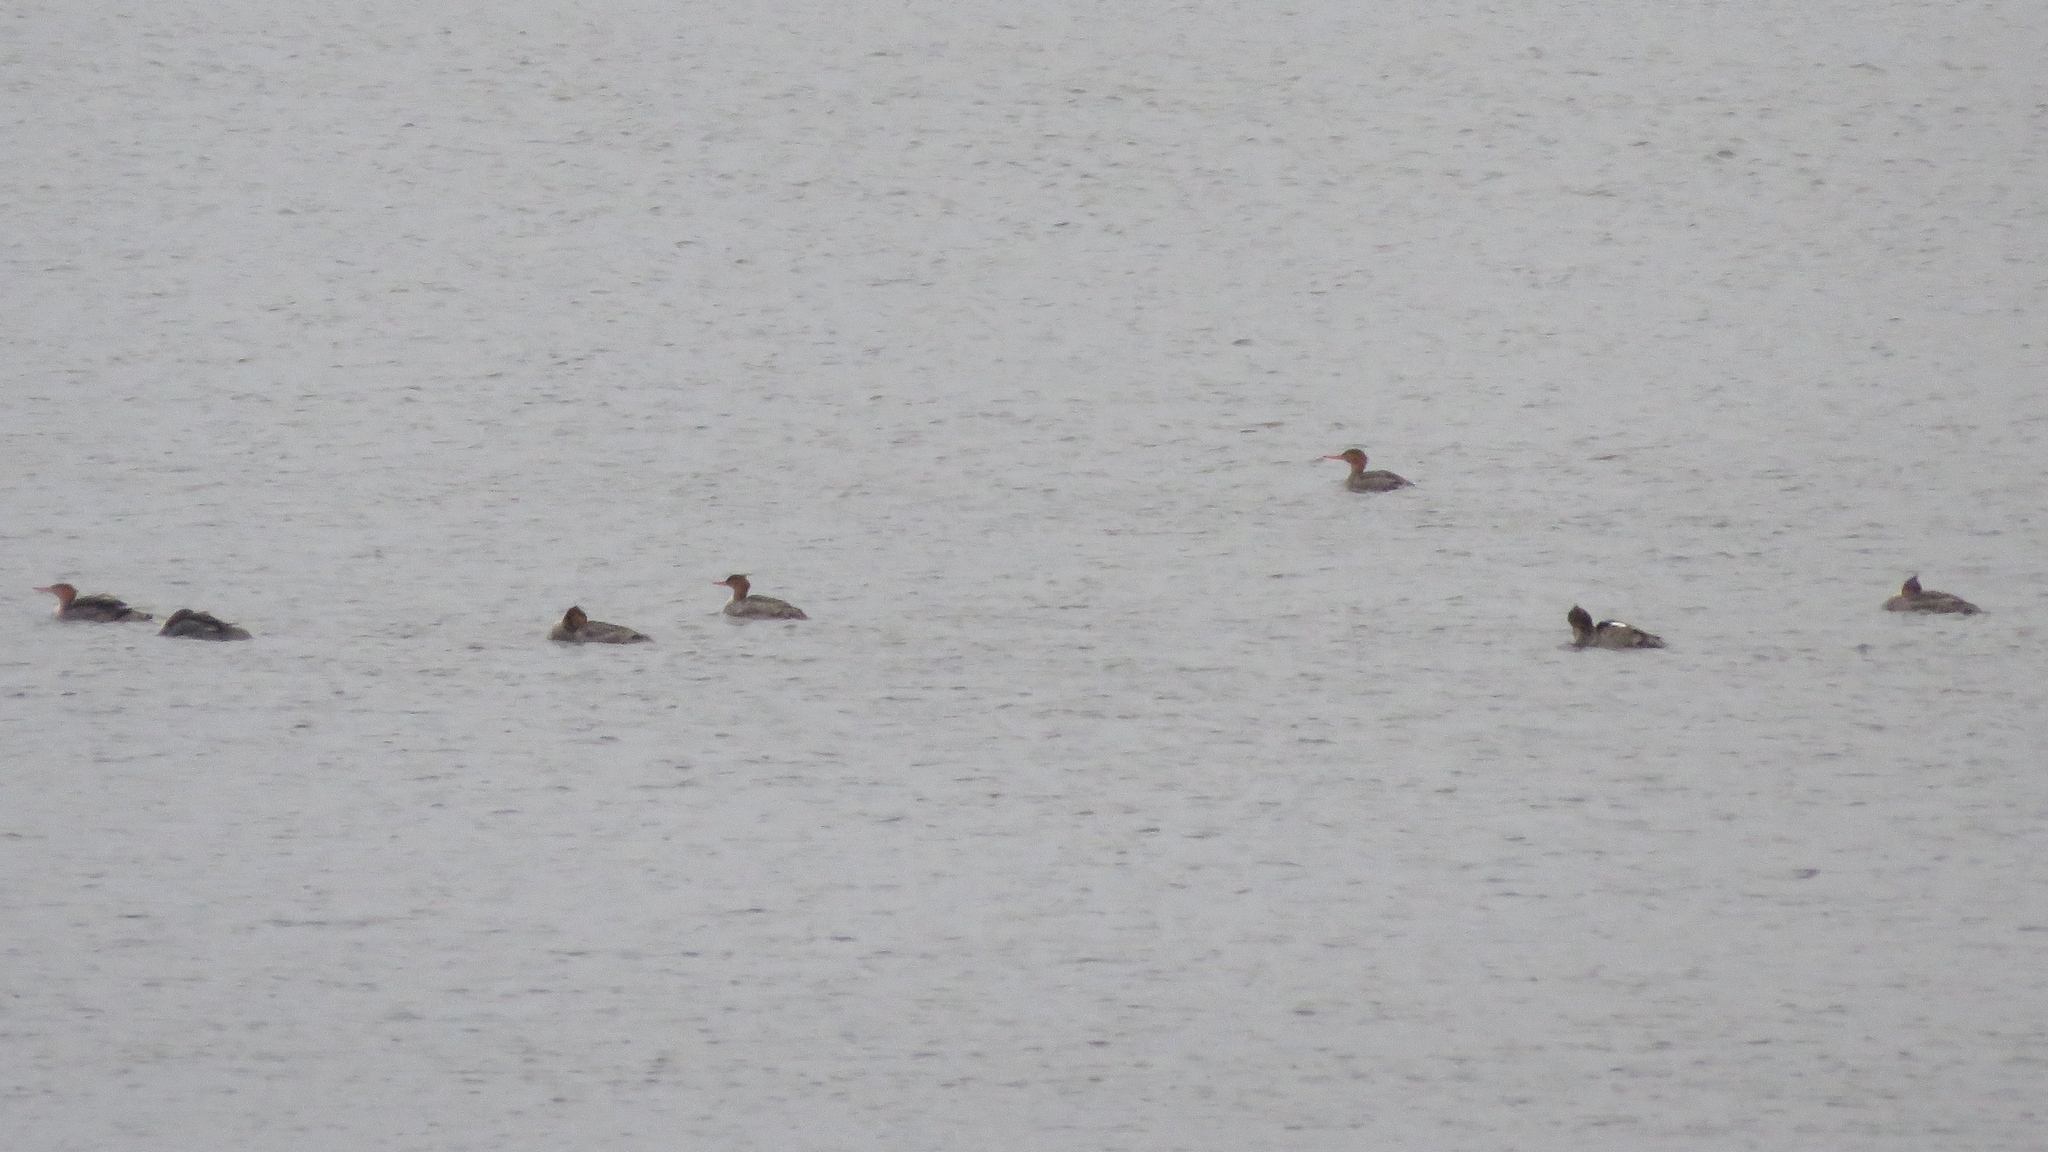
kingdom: Animalia
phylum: Chordata
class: Aves
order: Anseriformes
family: Anatidae
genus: Mergus
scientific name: Mergus serrator
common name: Red-breasted merganser
